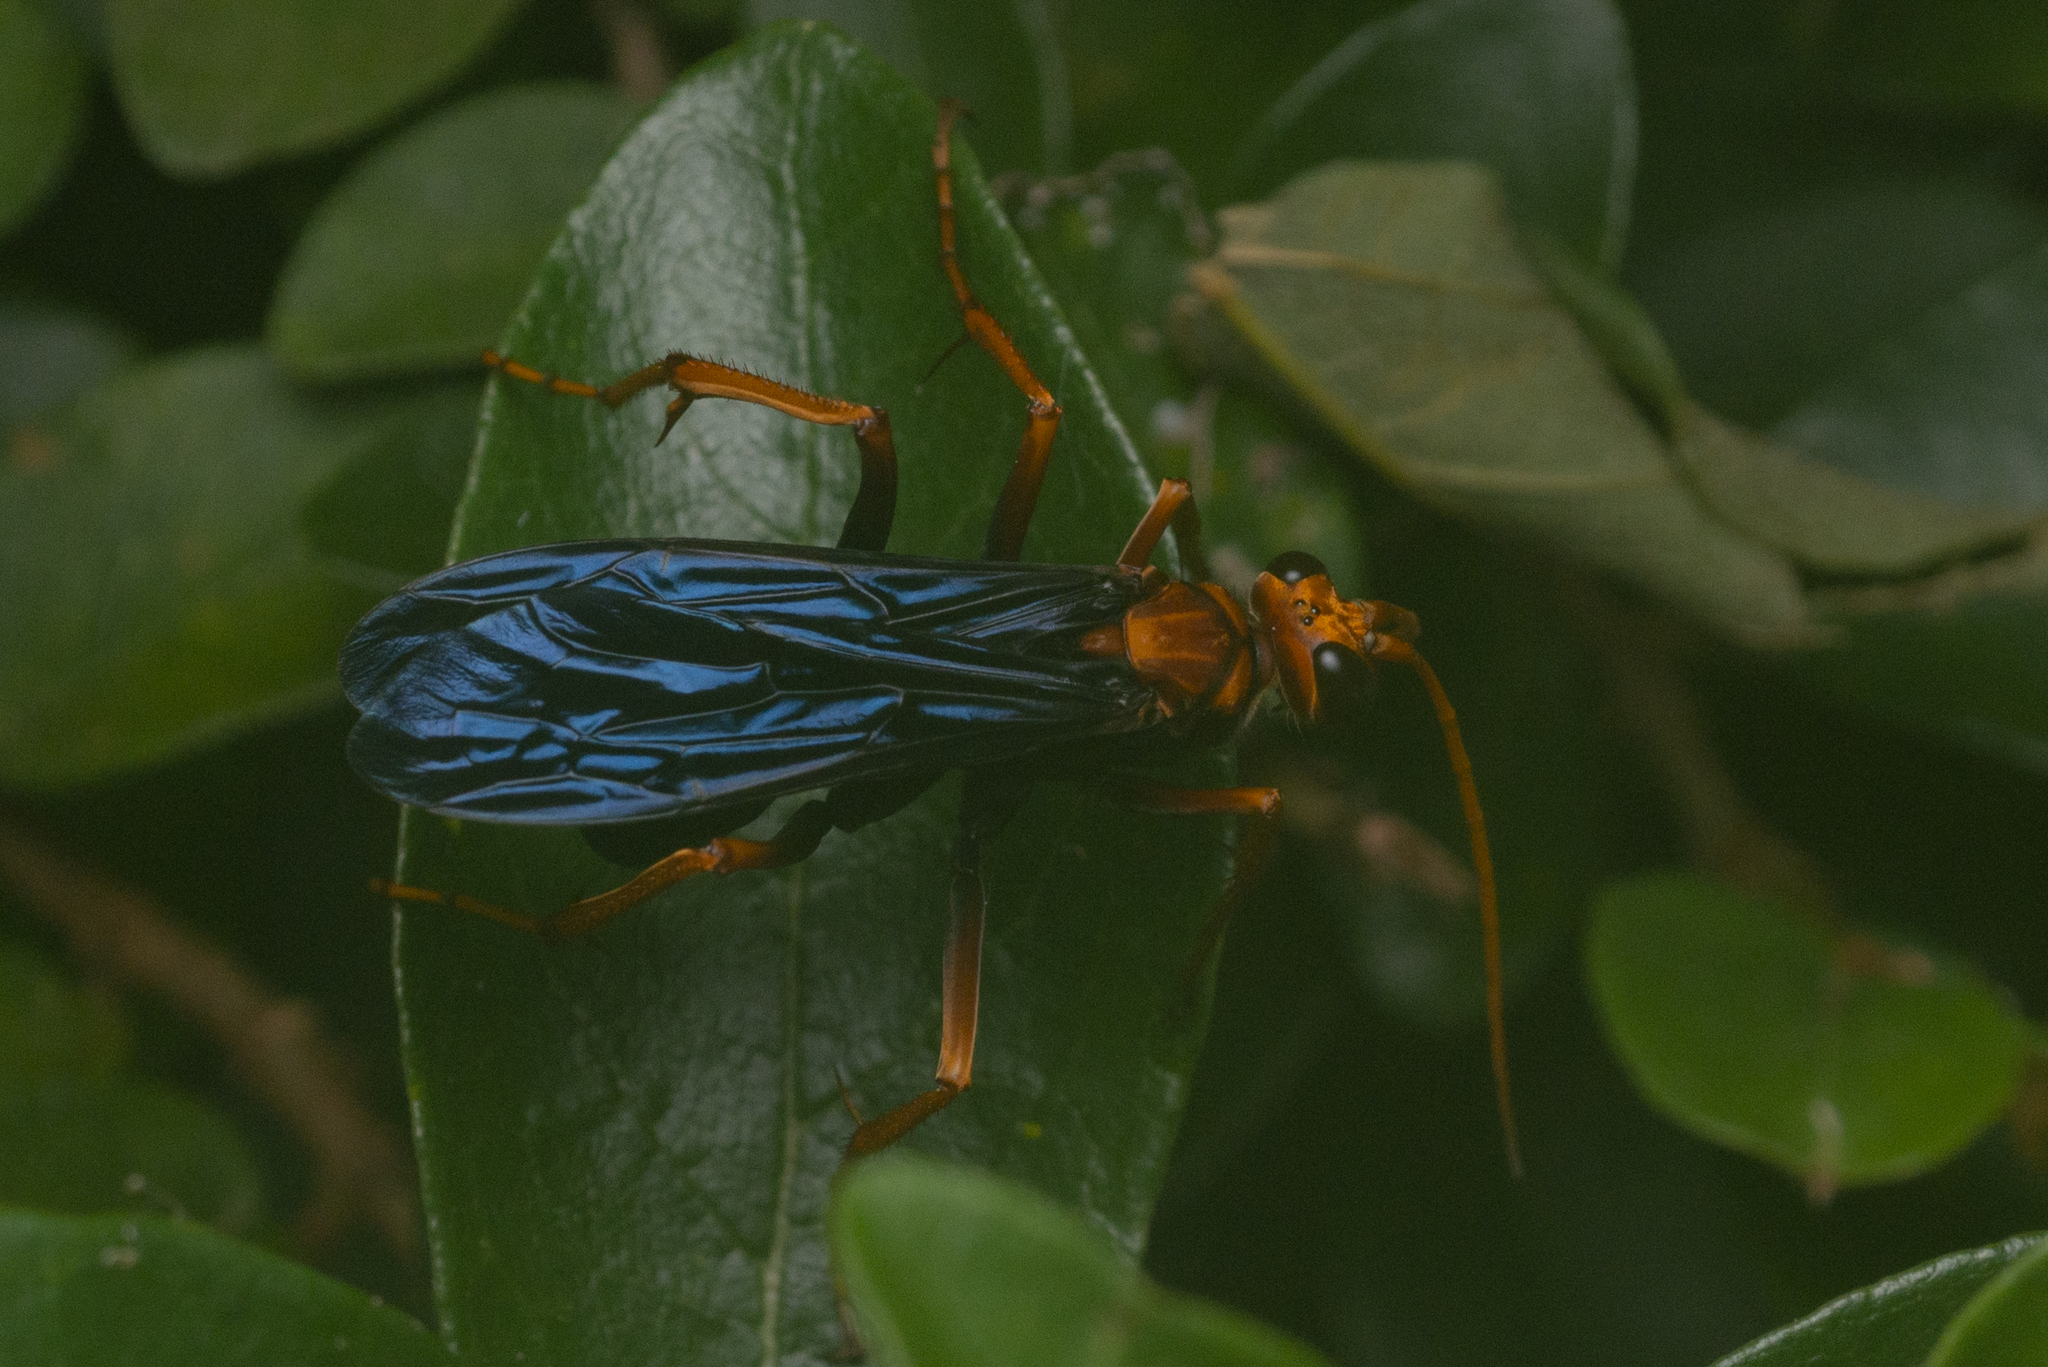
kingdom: Animalia
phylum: Arthropoda
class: Insecta
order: Hymenoptera
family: Pompilidae
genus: Cyphononyx
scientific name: Cyphononyx bipartitus
